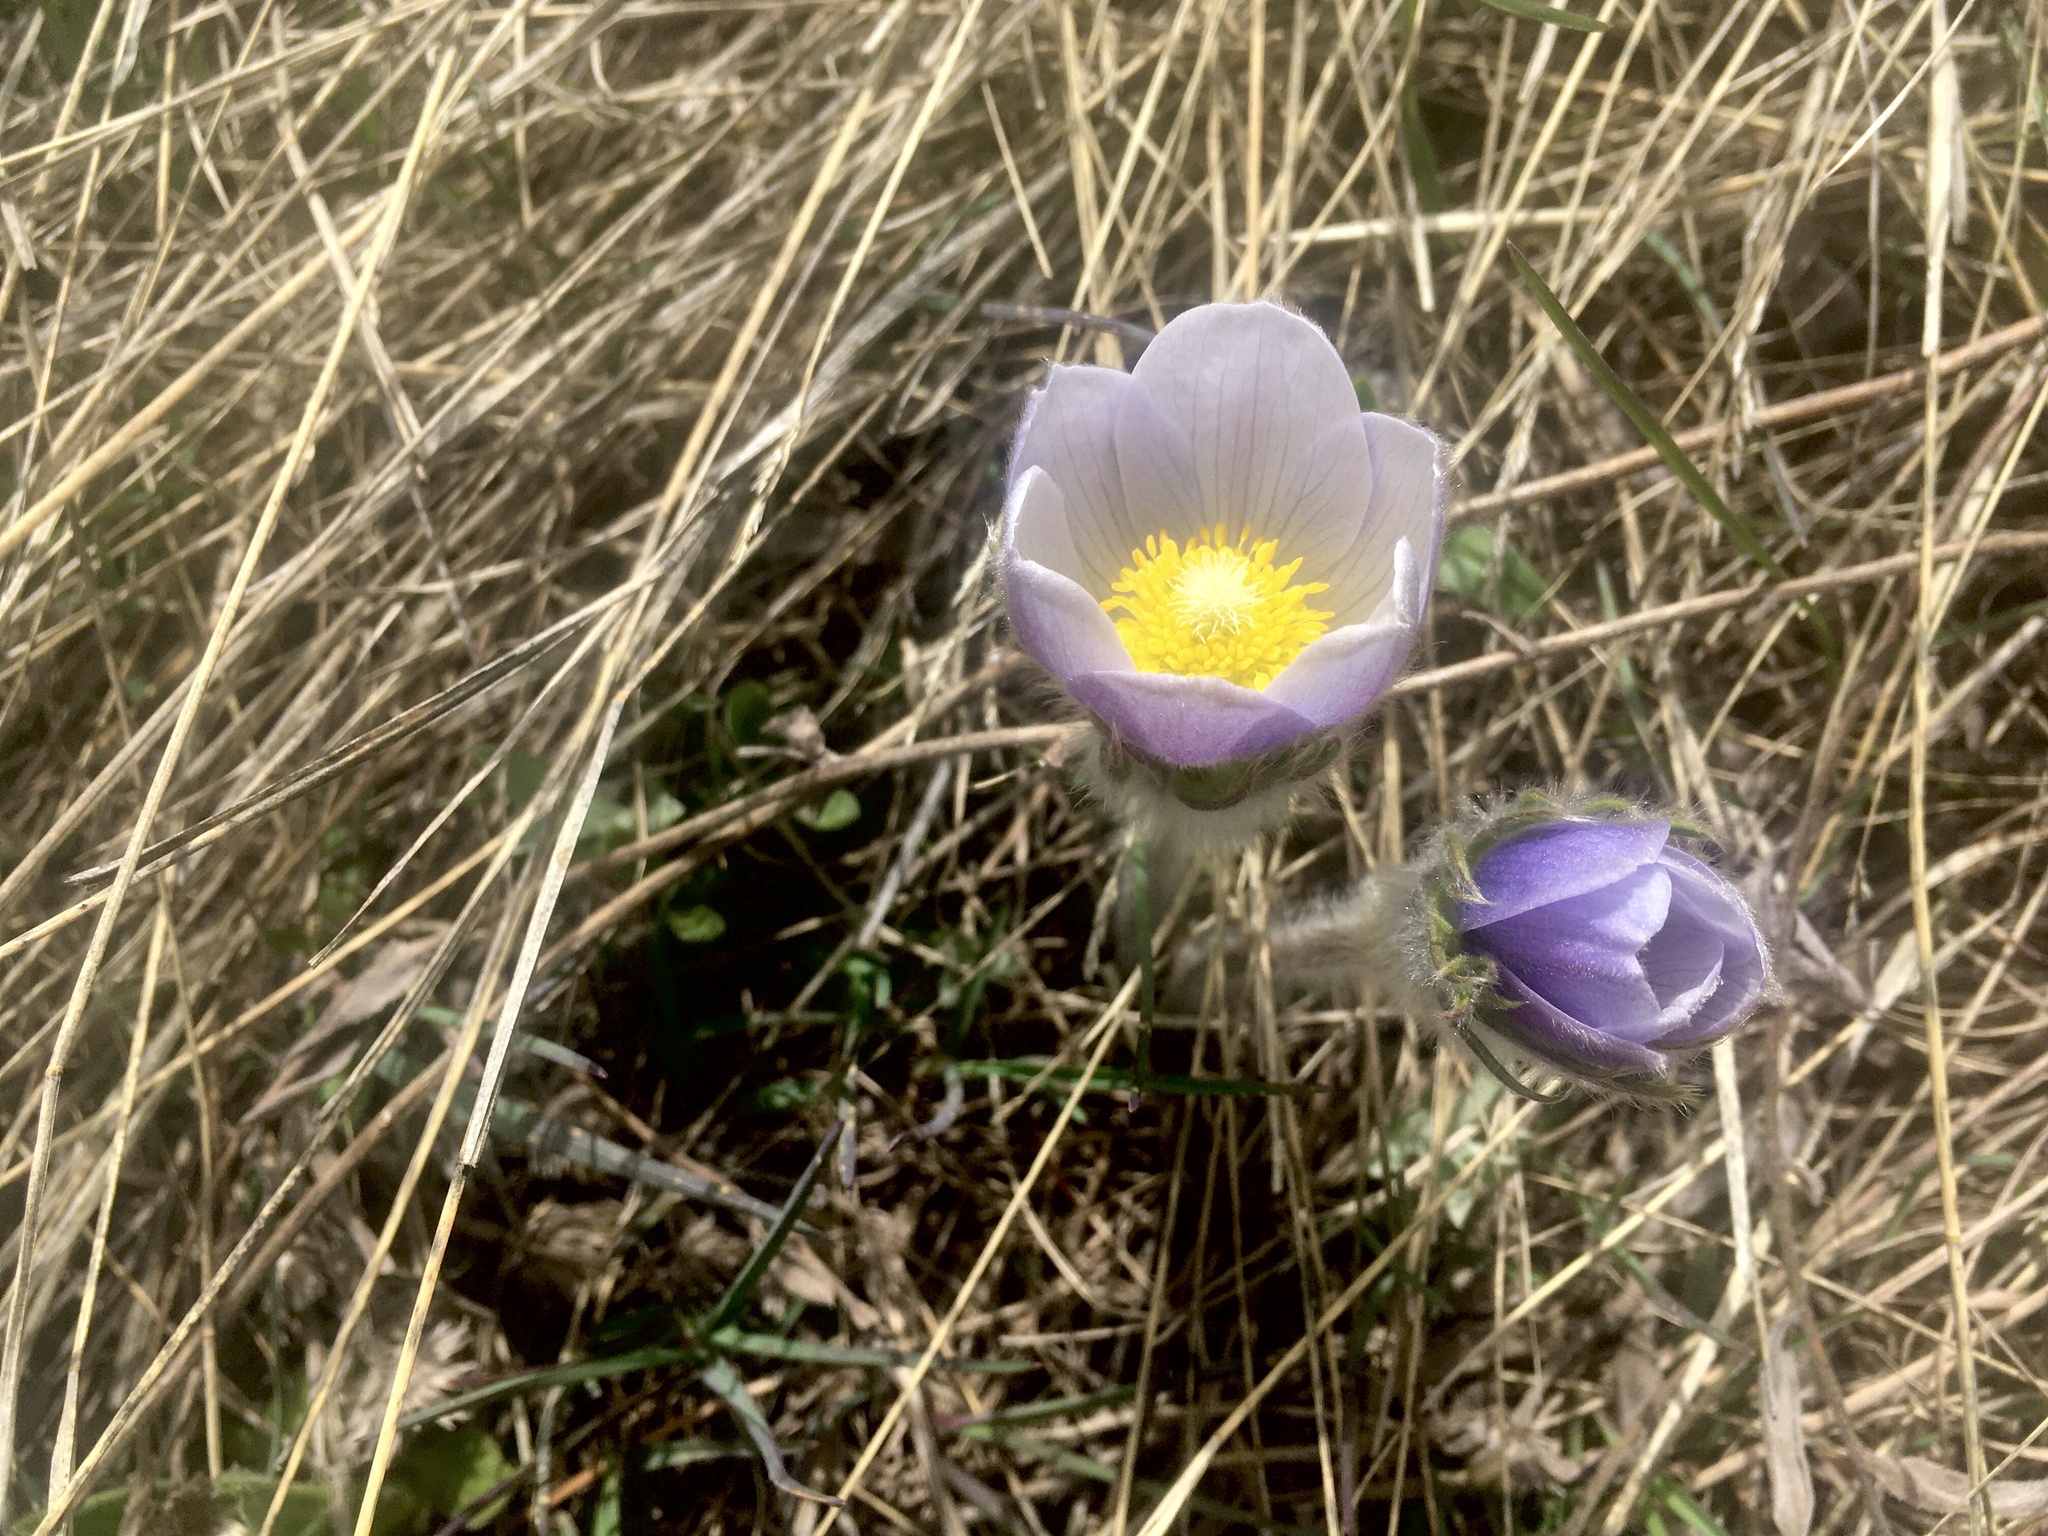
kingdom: Plantae
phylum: Tracheophyta
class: Magnoliopsida
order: Ranunculales
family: Ranunculaceae
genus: Pulsatilla
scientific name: Pulsatilla nuttalliana
